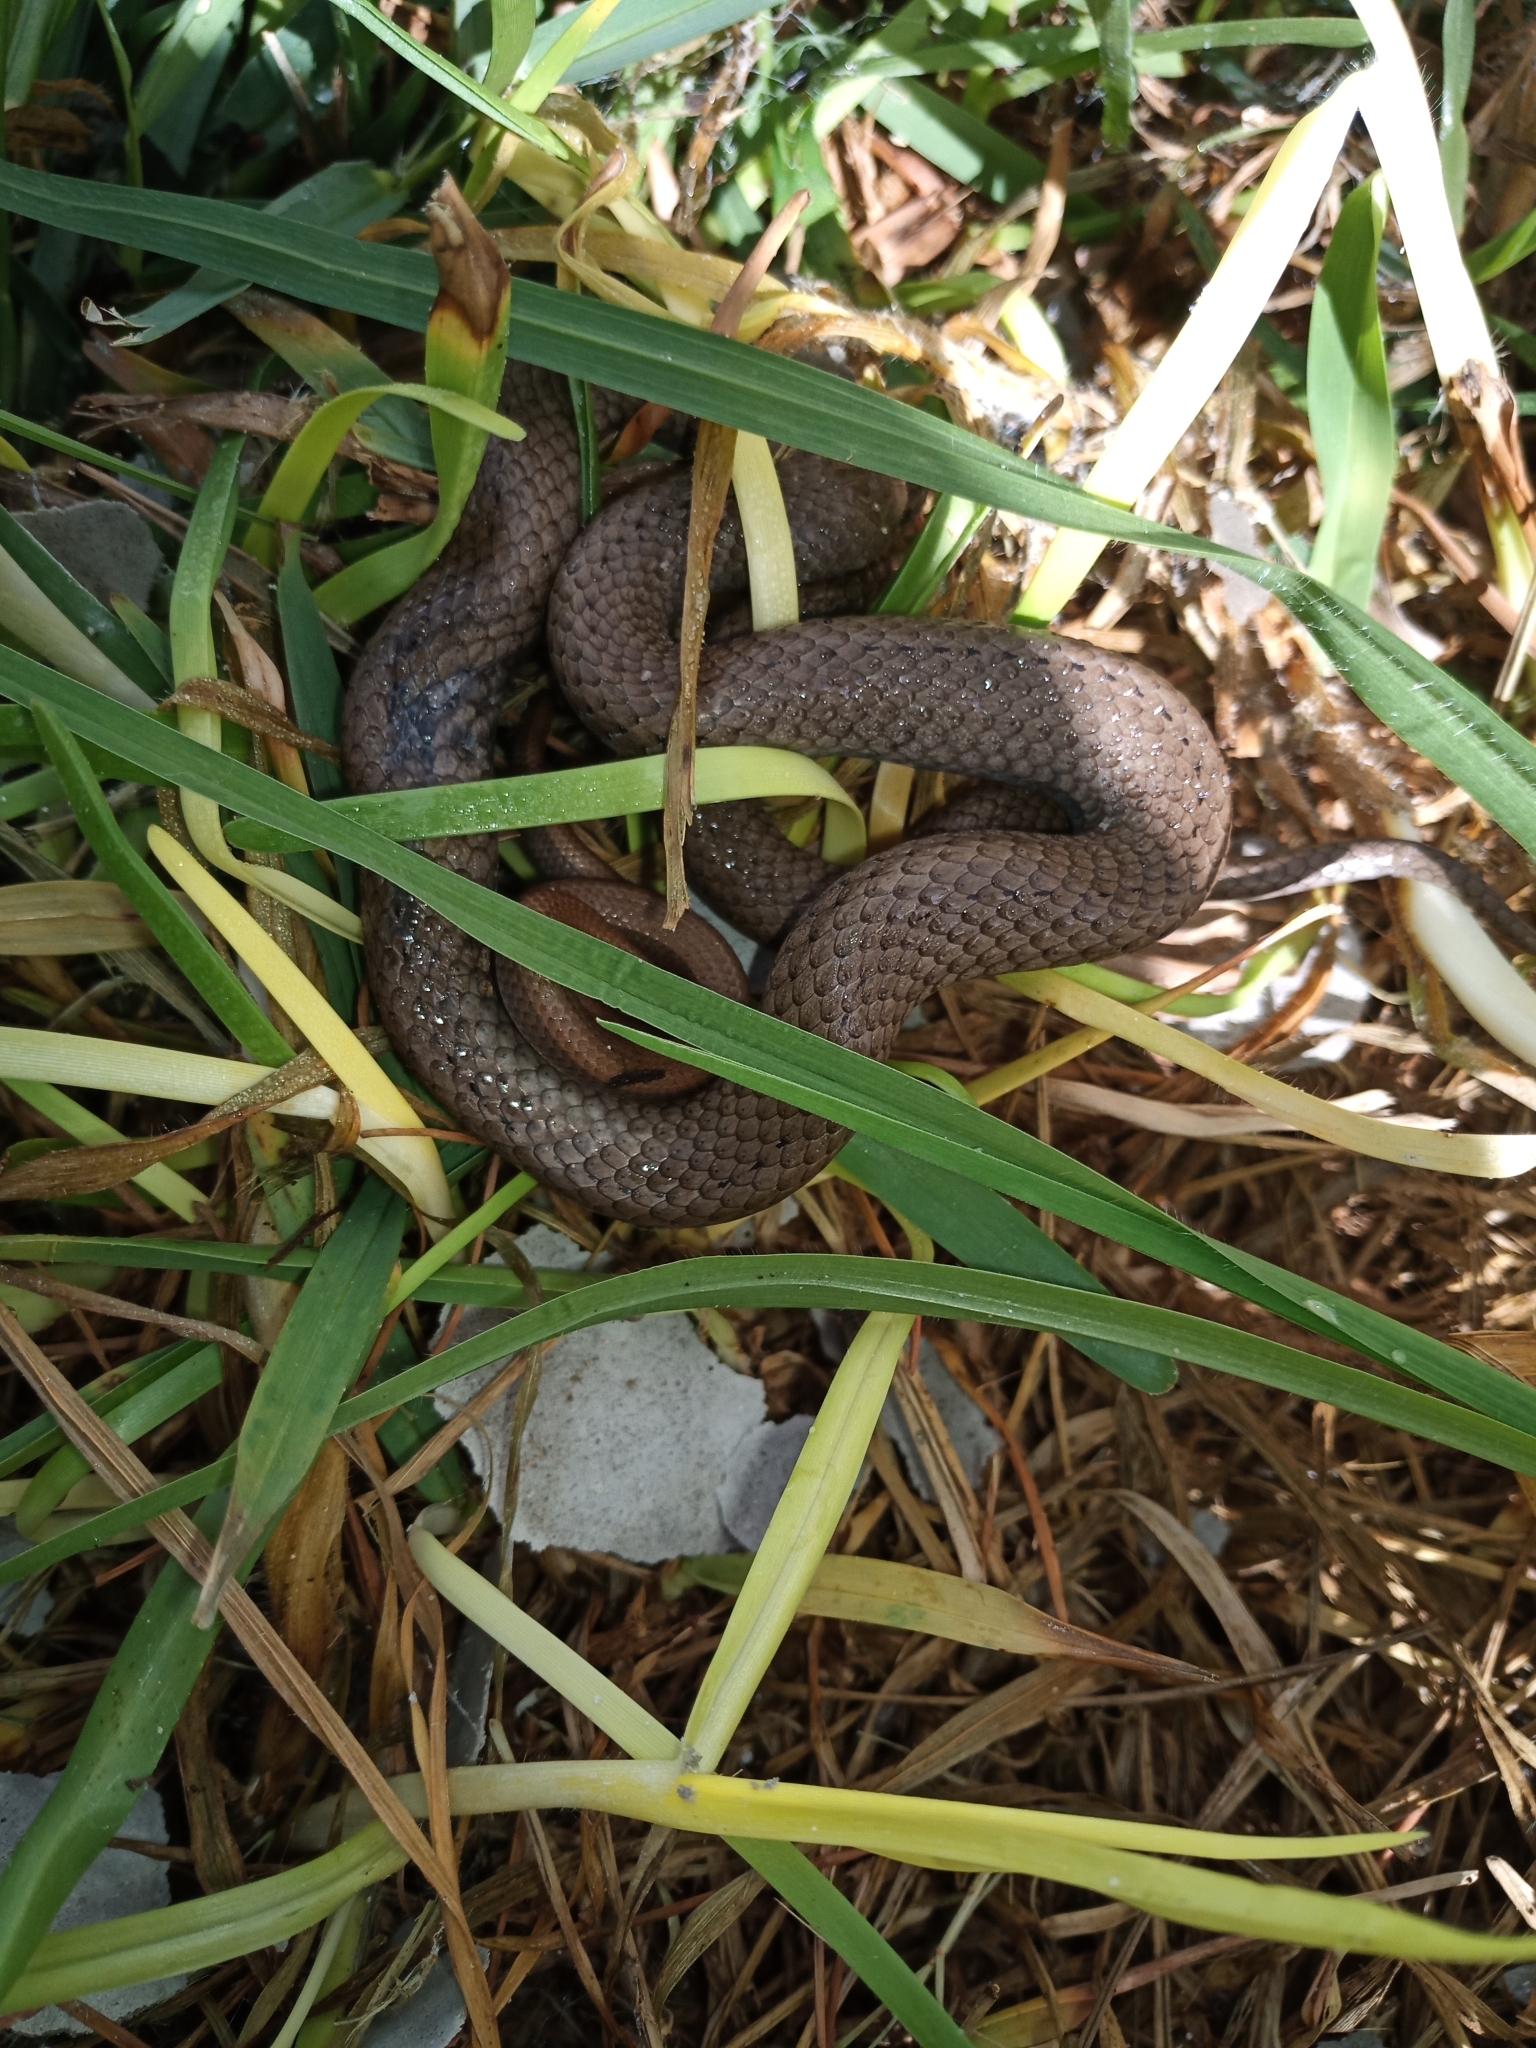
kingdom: Animalia
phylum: Chordata
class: Squamata
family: Pseudoxyrhophiidae
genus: Duberria
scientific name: Duberria lutrix
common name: Common slug eater
